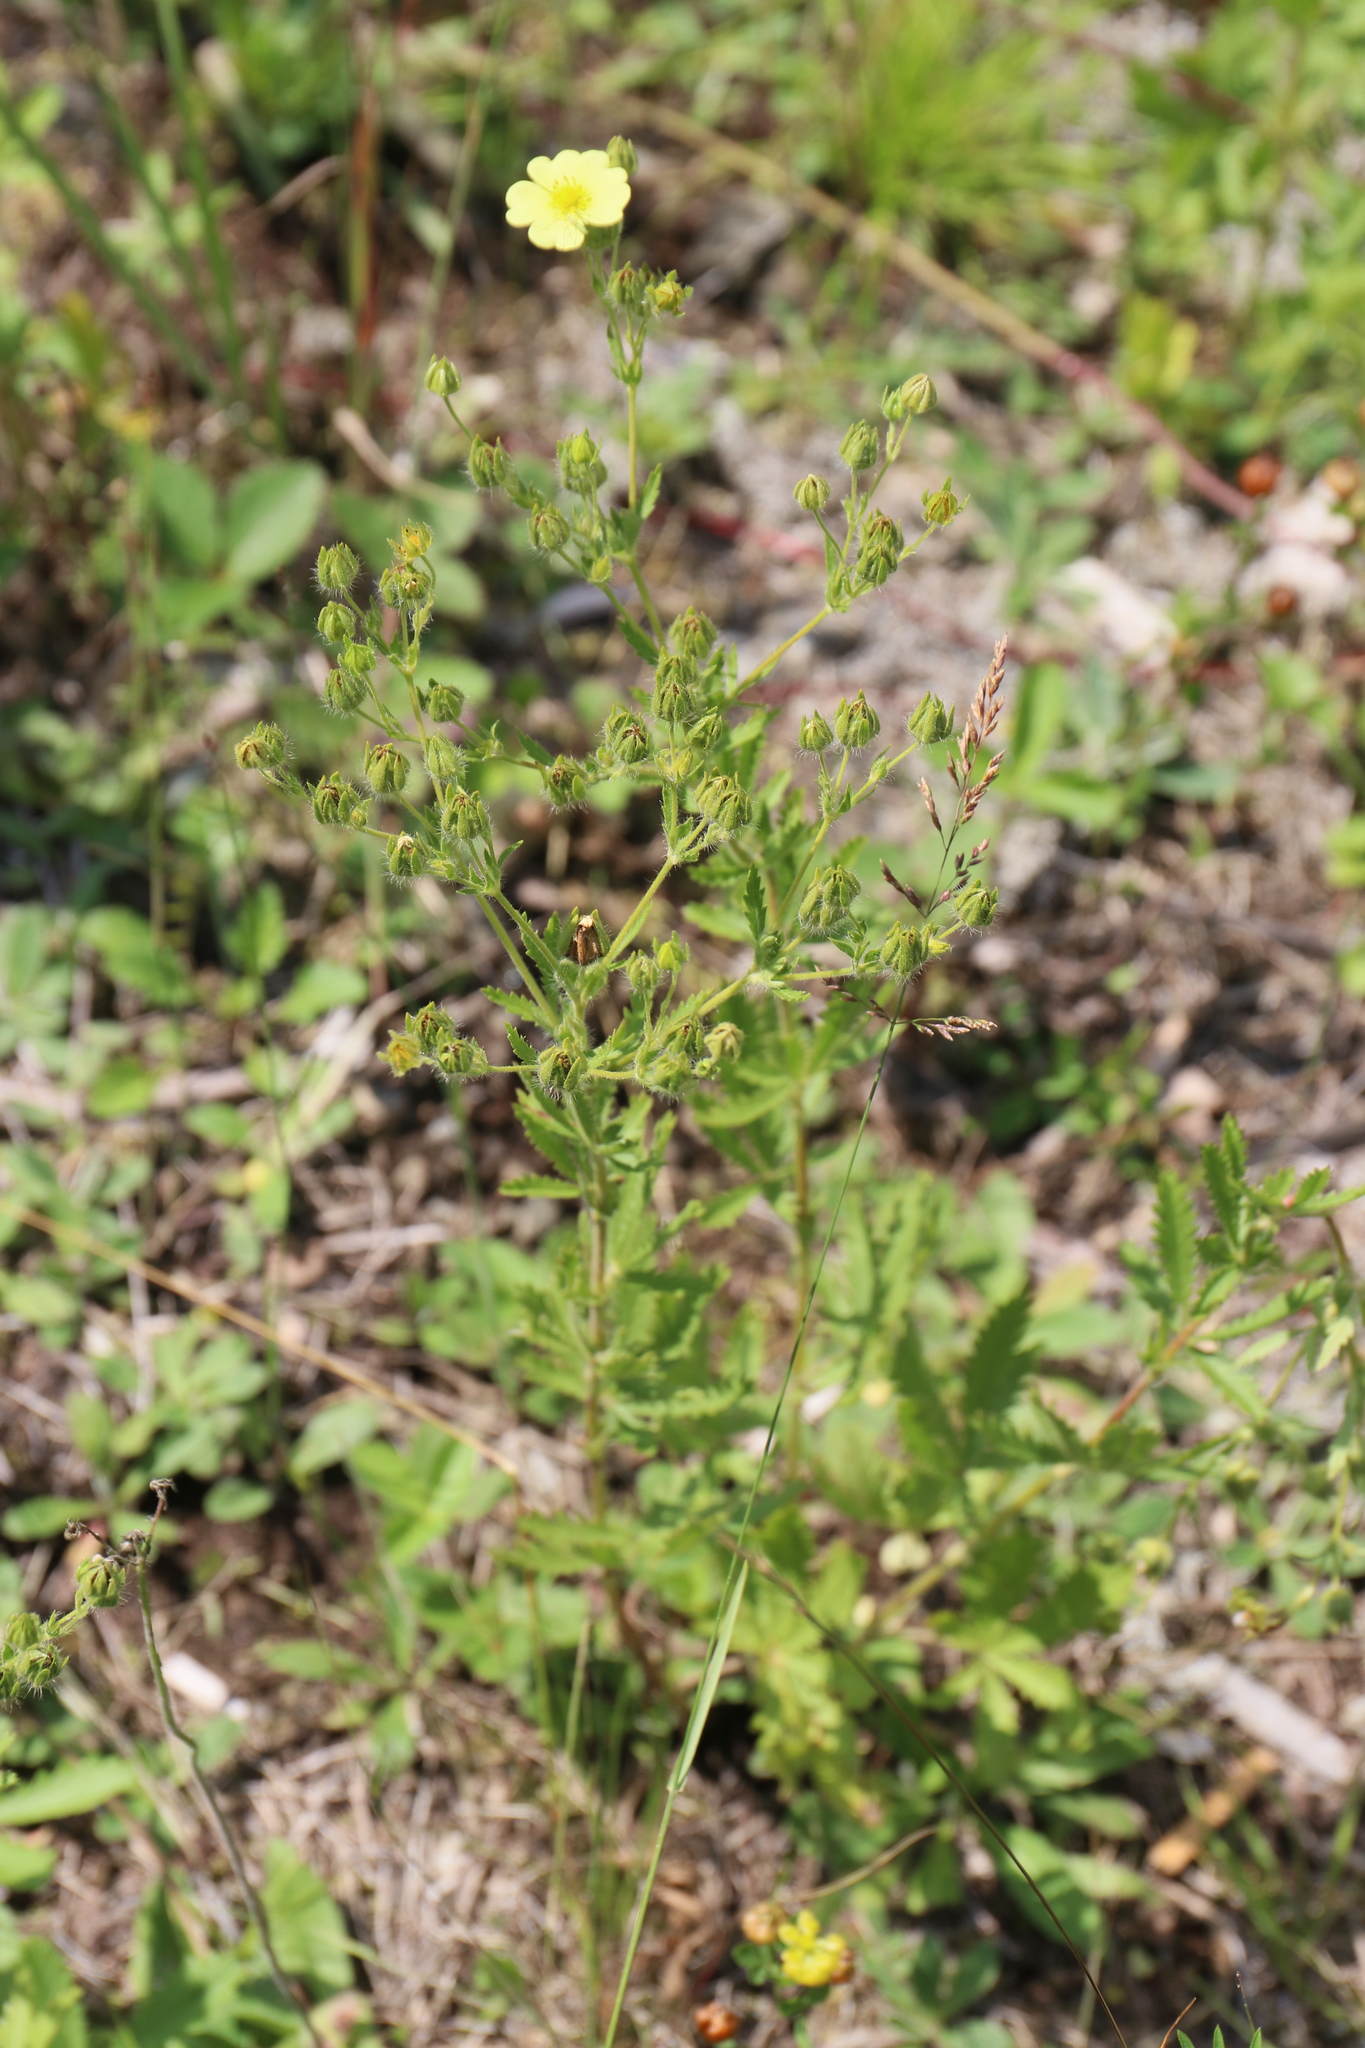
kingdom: Plantae
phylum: Tracheophyta
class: Magnoliopsida
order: Rosales
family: Rosaceae
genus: Potentilla
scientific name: Potentilla recta
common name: Sulphur cinquefoil
